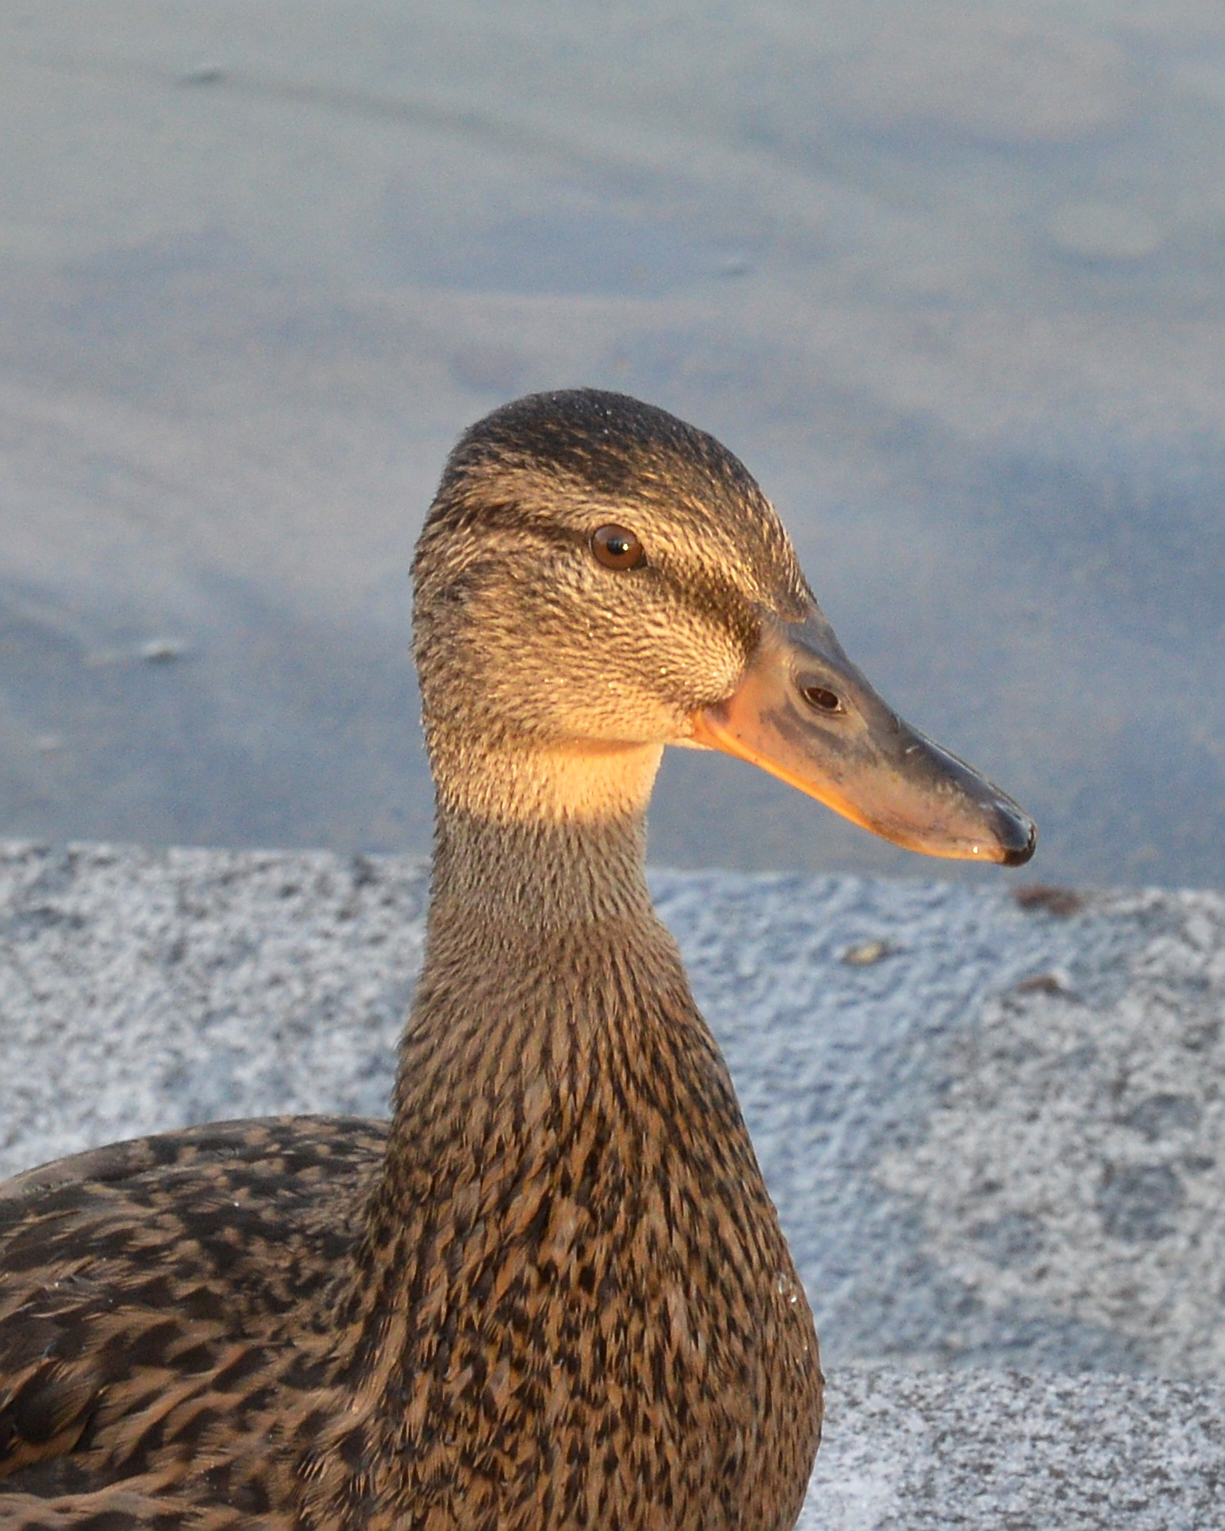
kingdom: Animalia
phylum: Chordata
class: Aves
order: Anseriformes
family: Anatidae
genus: Anas
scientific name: Anas platyrhynchos
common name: Mallard
